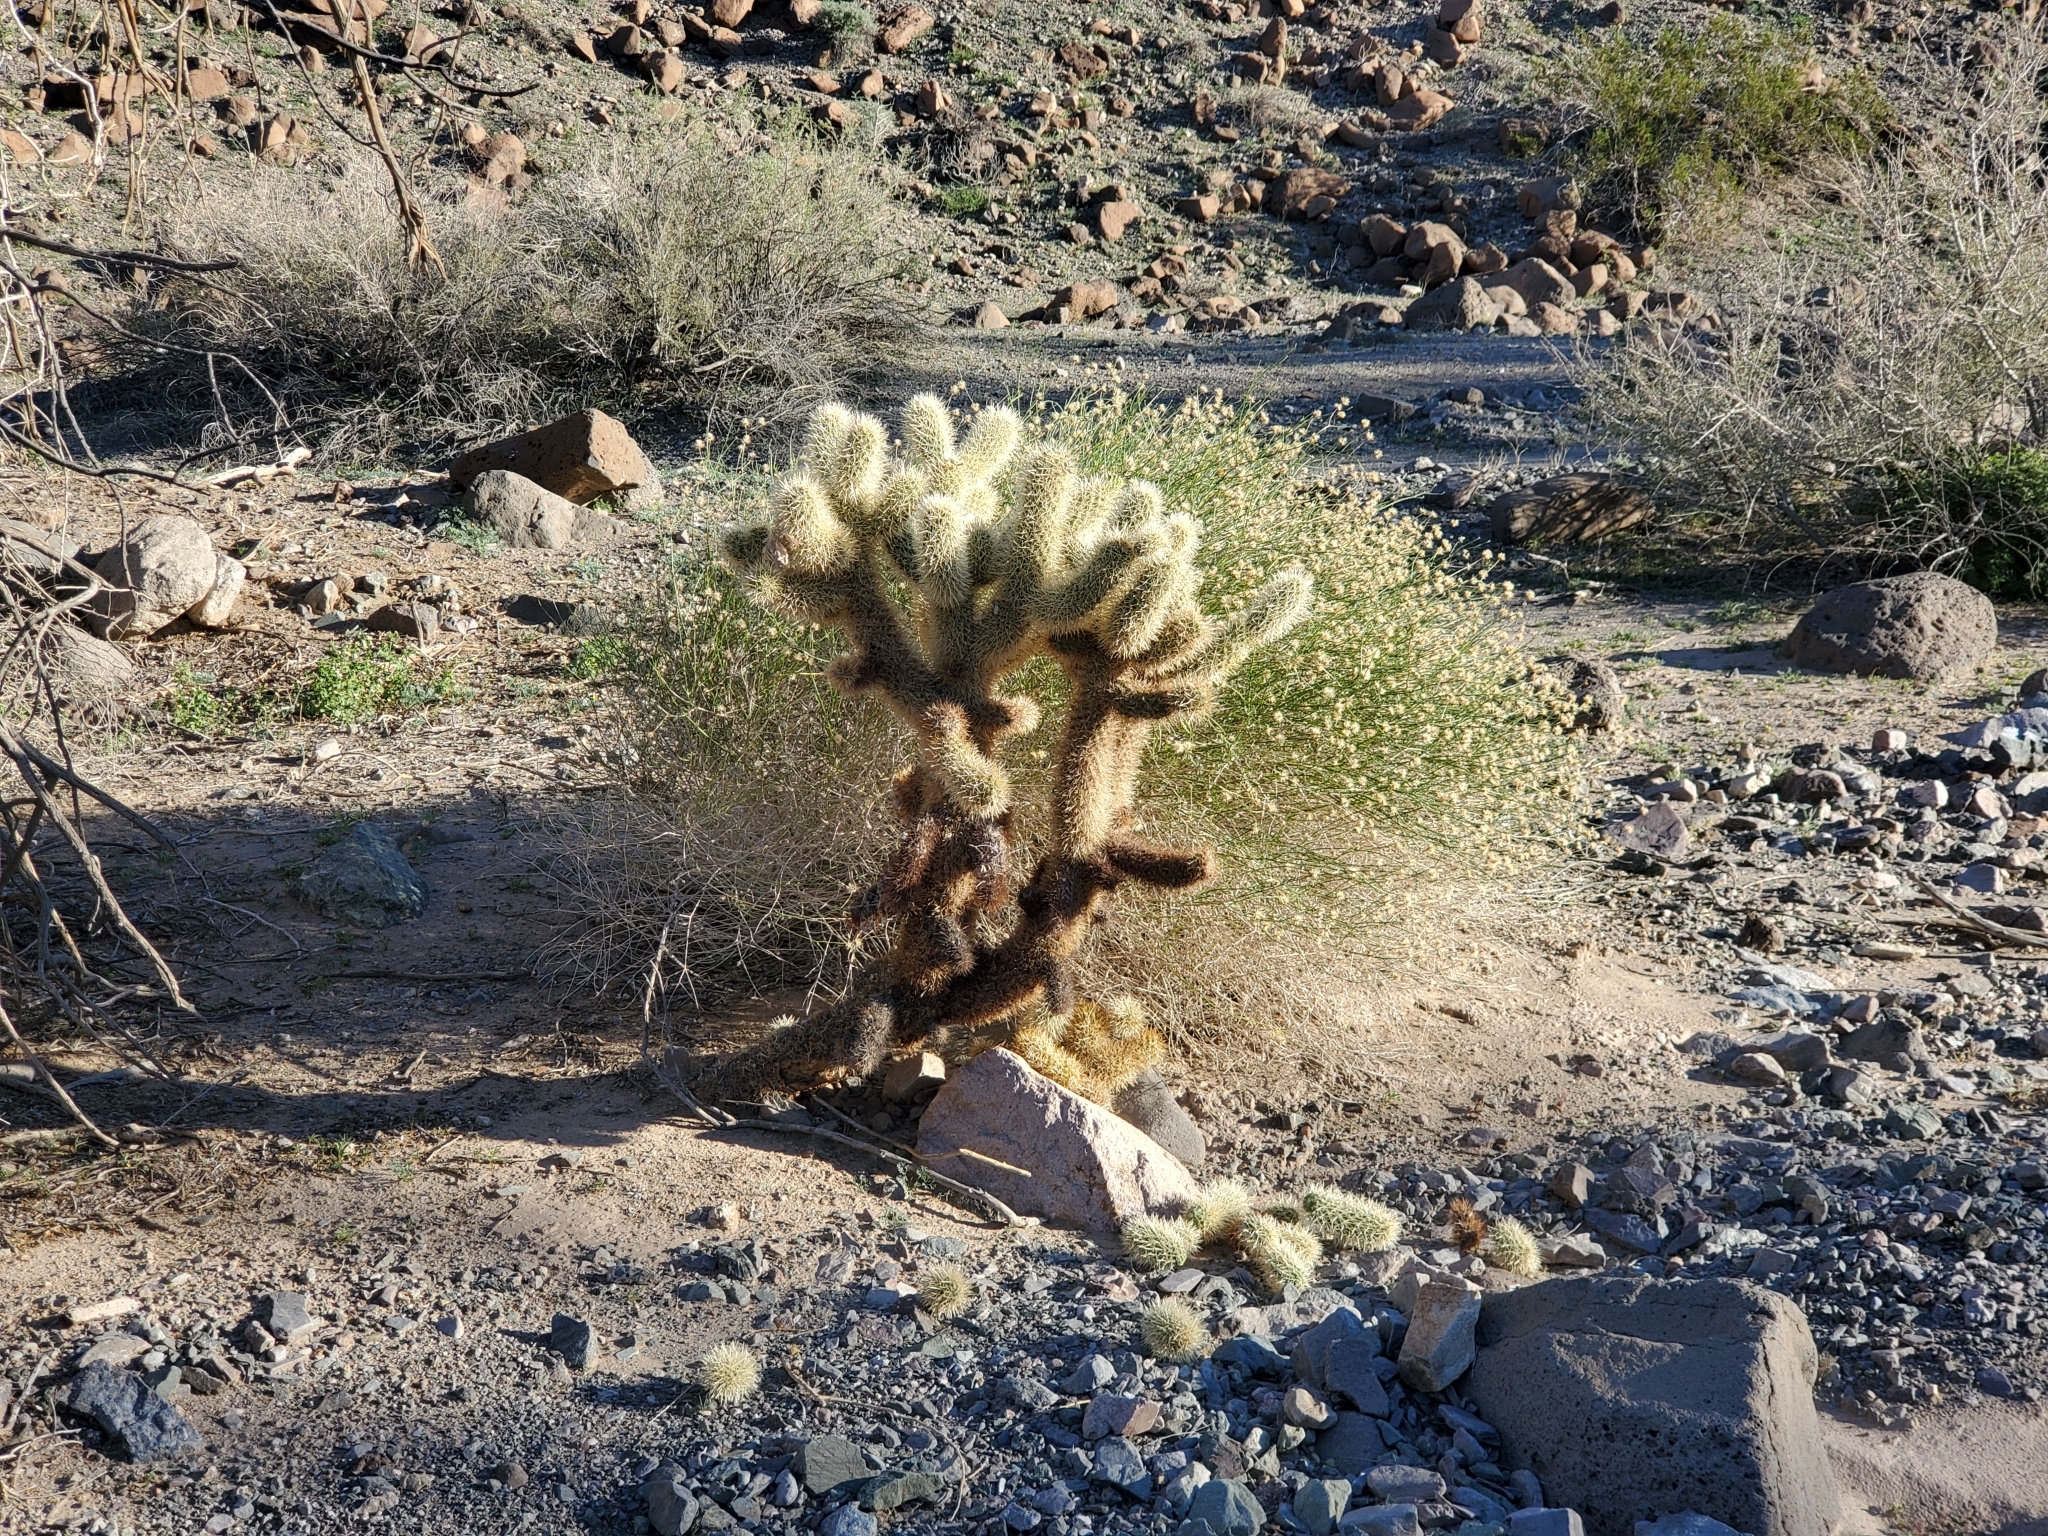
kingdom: Plantae
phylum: Tracheophyta
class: Magnoliopsida
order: Caryophyllales
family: Cactaceae
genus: Cylindropuntia
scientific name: Cylindropuntia fosbergii
